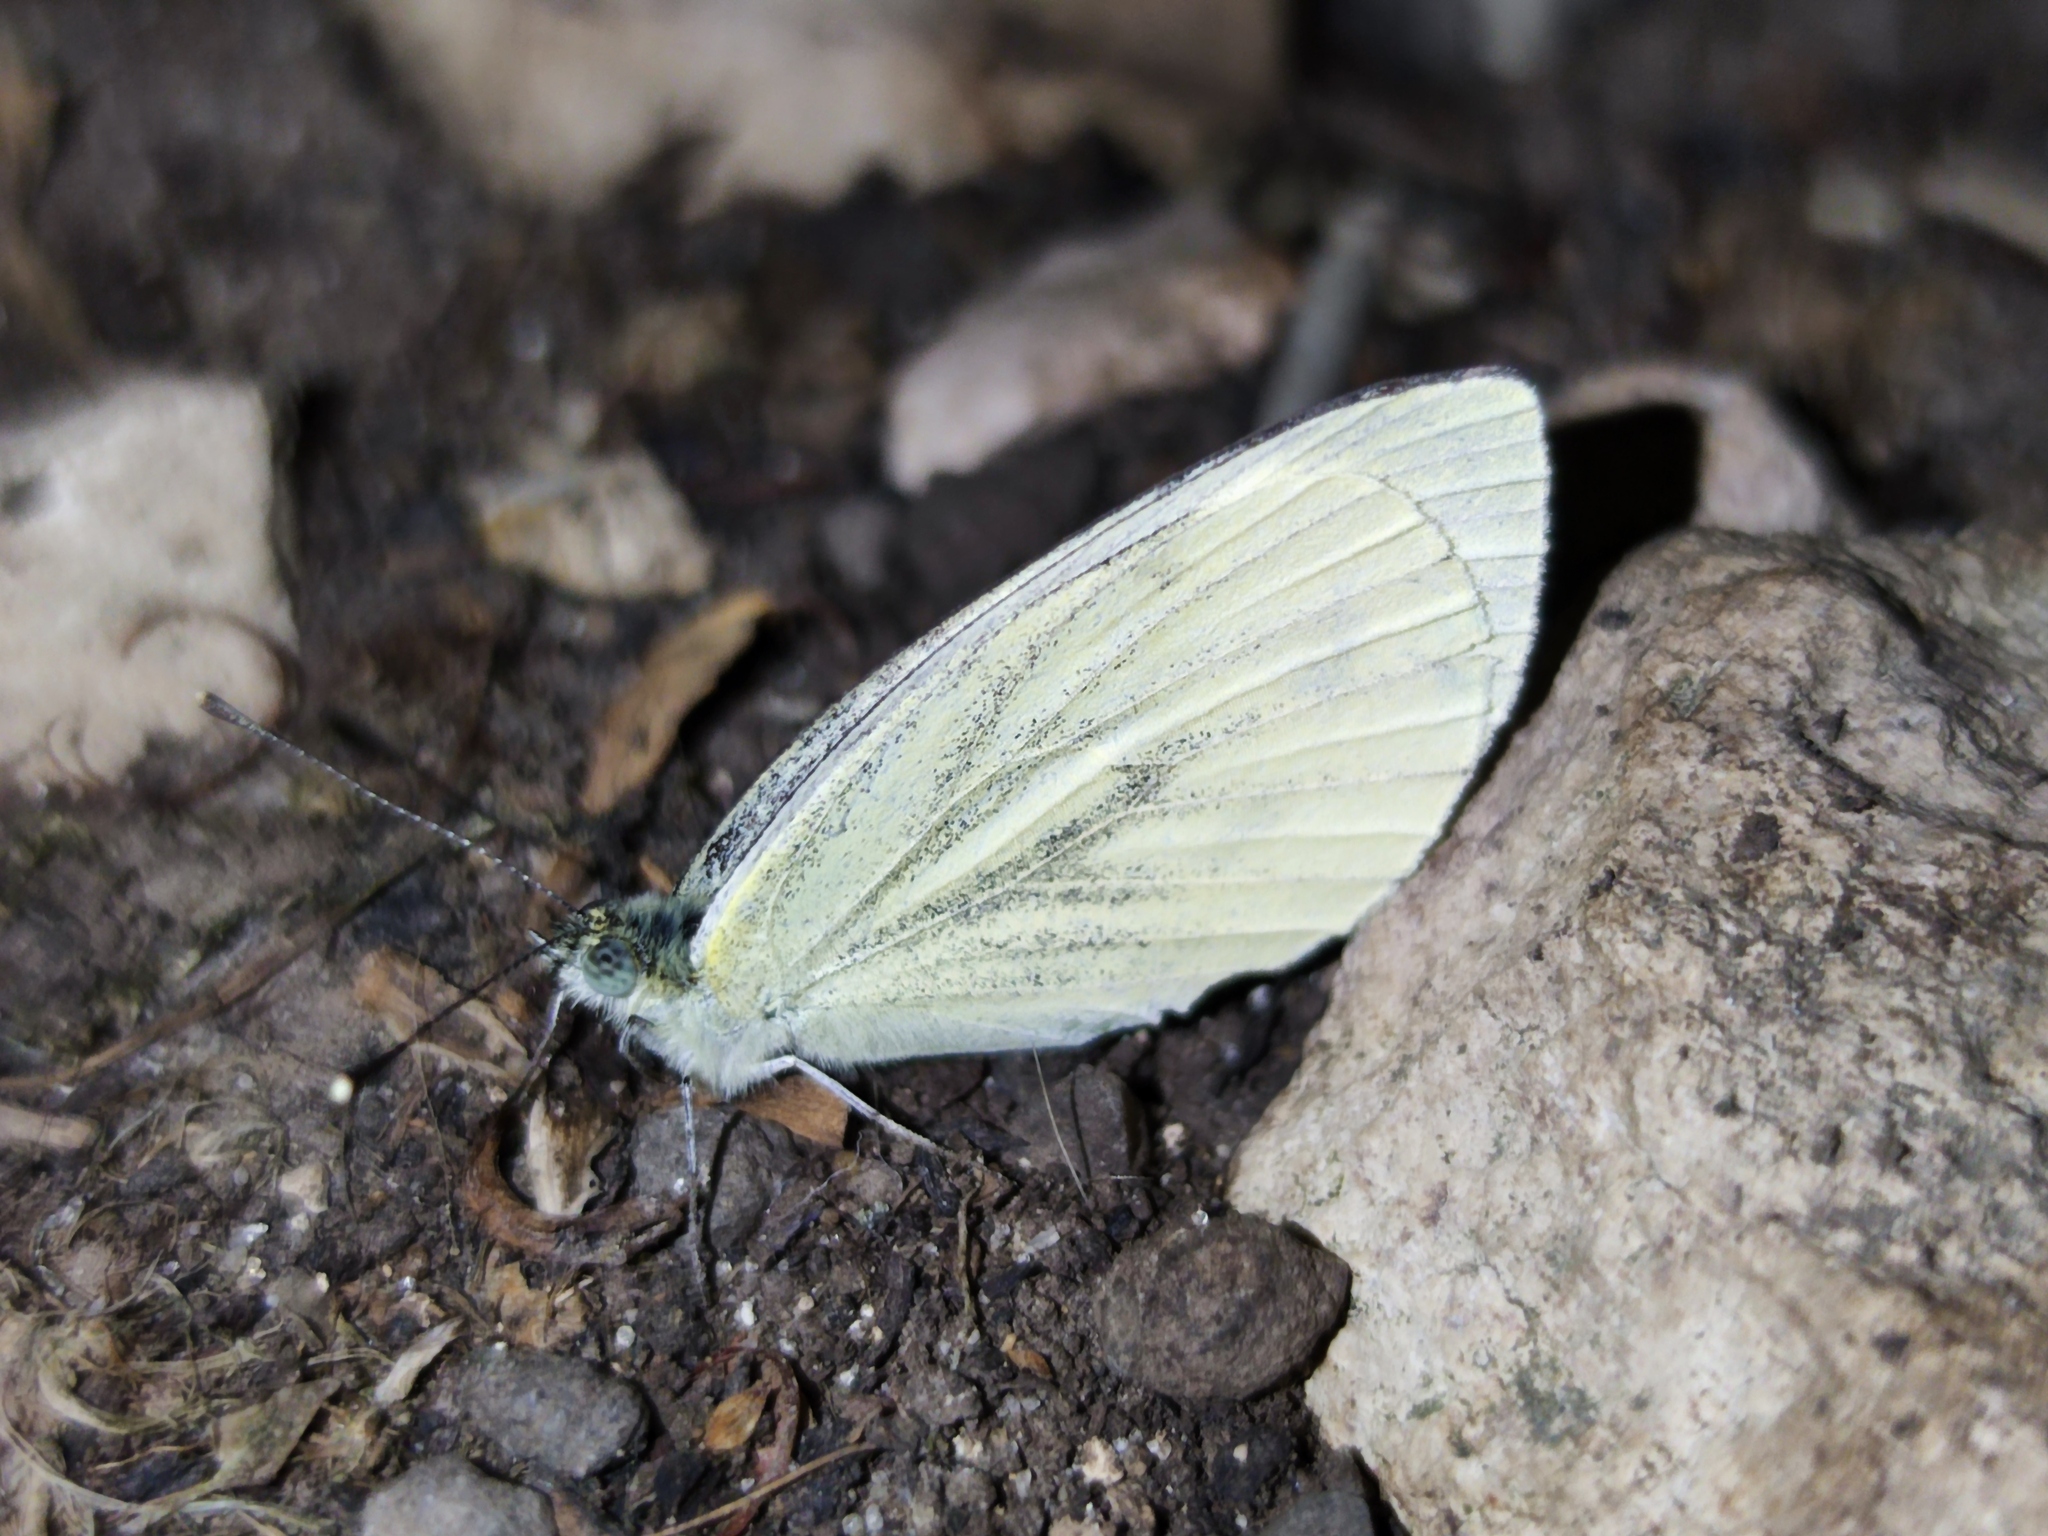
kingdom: Animalia
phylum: Arthropoda
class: Insecta
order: Lepidoptera
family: Pieridae
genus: Pieris
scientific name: Pieris napi
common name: Green-veined white
